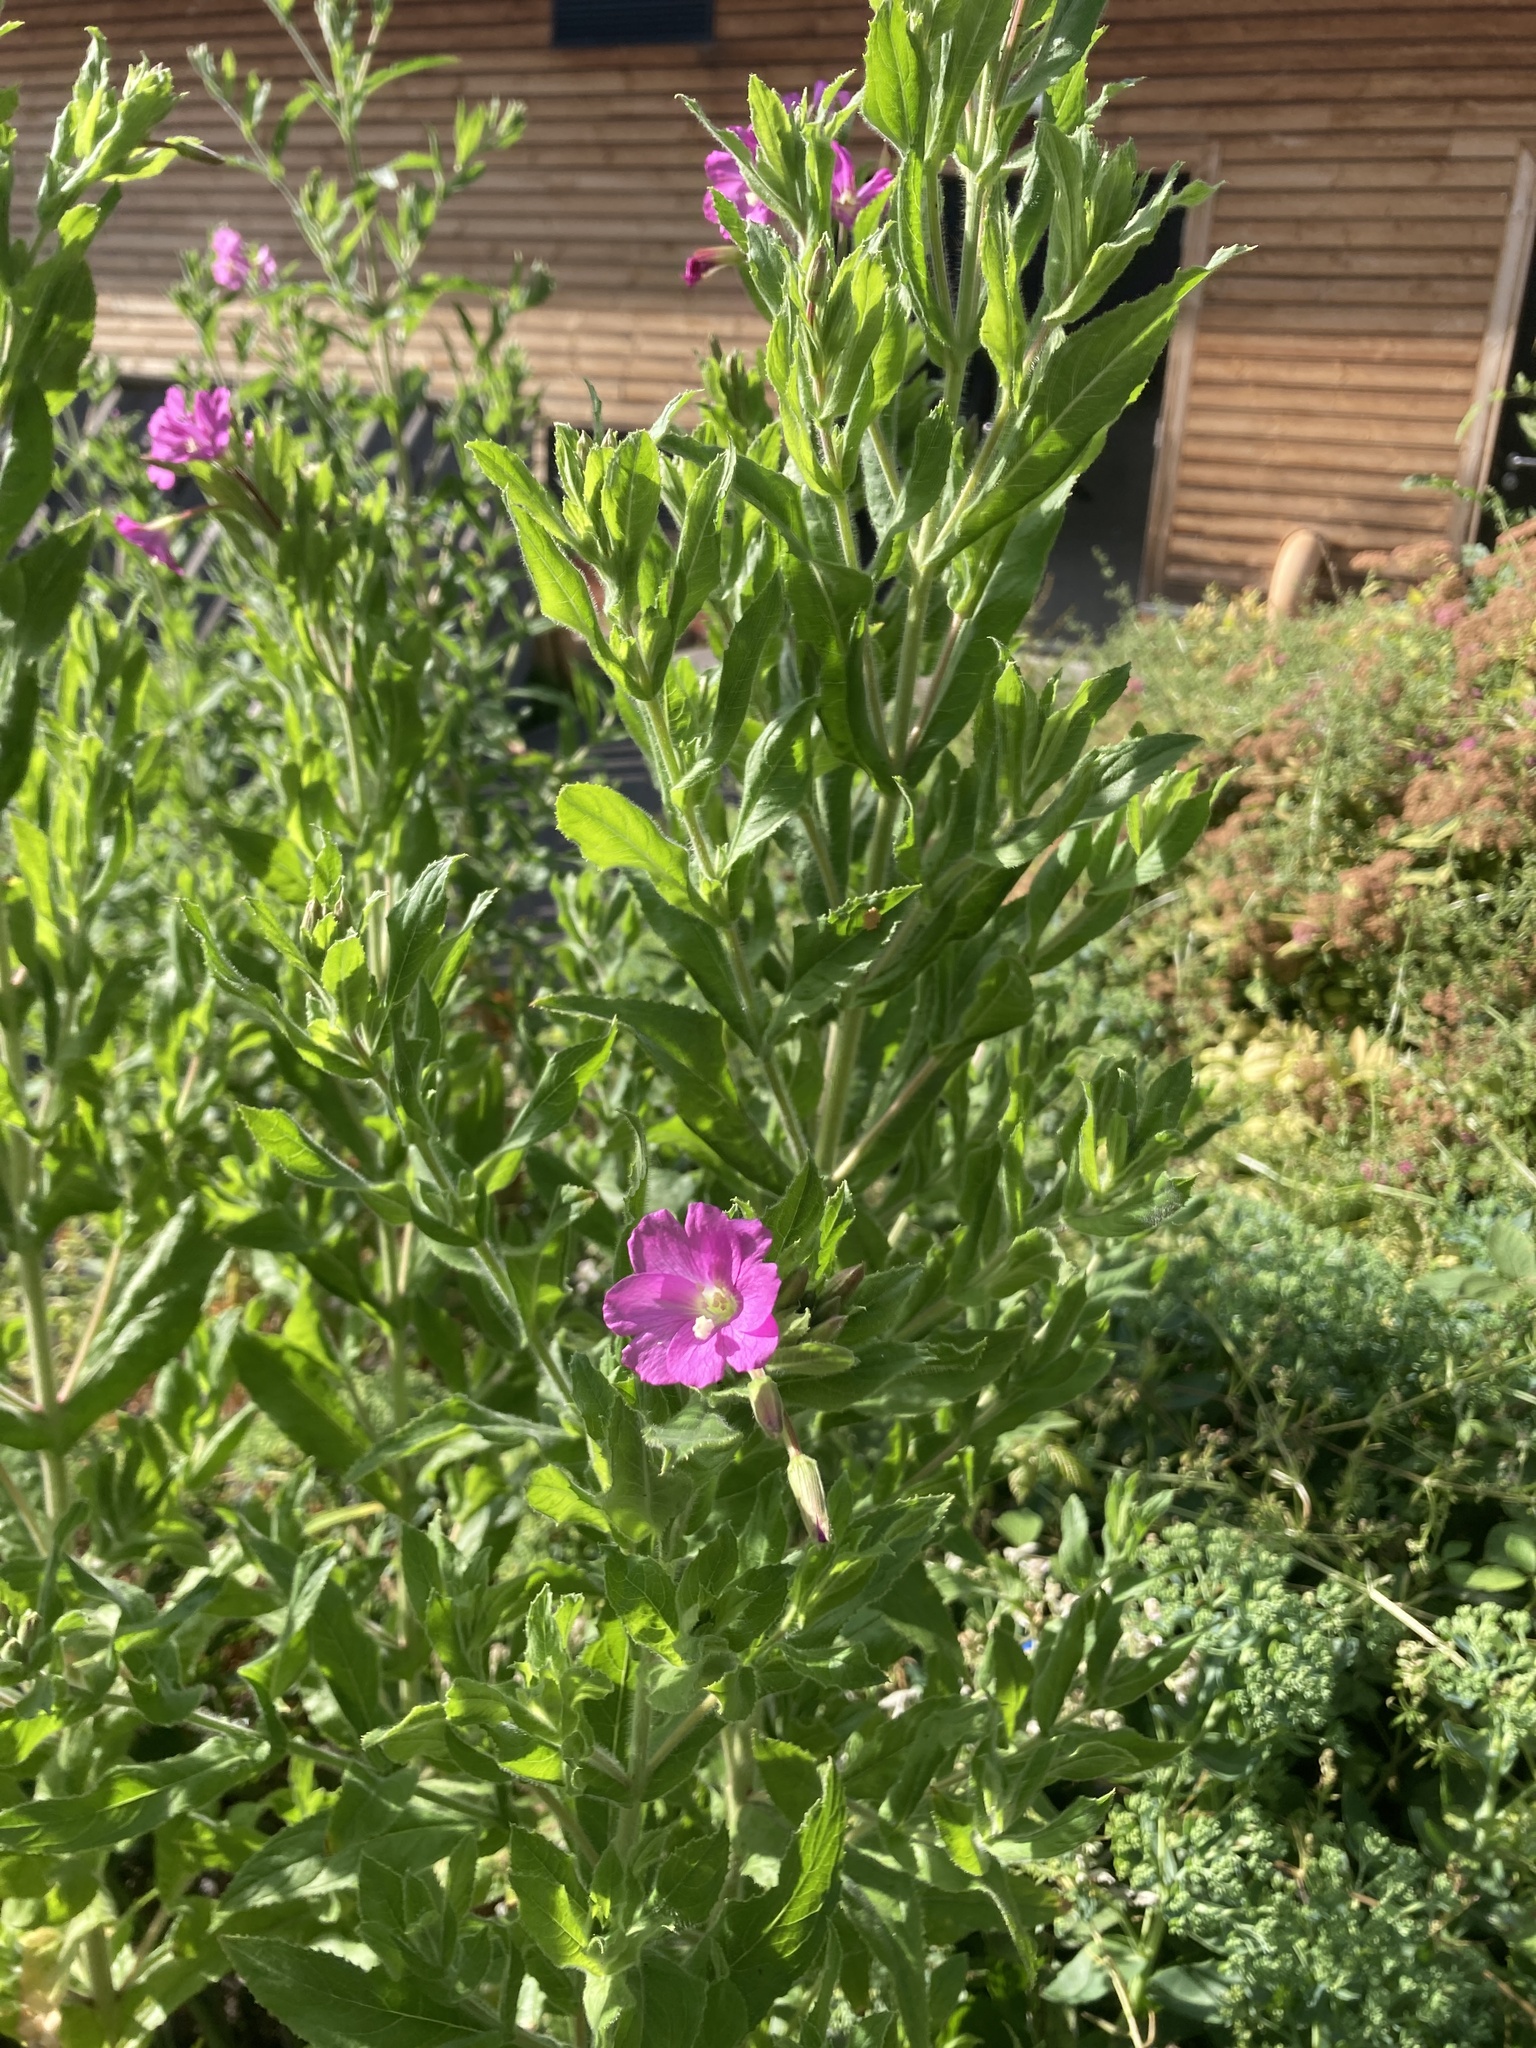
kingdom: Plantae
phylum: Tracheophyta
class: Magnoliopsida
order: Myrtales
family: Onagraceae
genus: Epilobium
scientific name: Epilobium hirsutum
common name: Great willowherb
